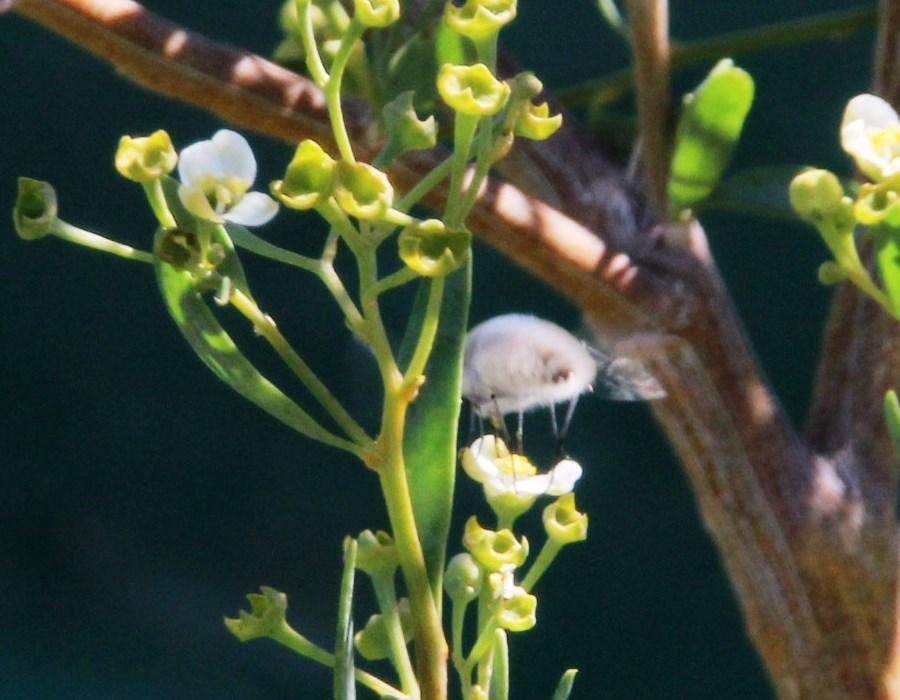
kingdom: Plantae
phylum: Tracheophyta
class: Magnoliopsida
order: Solanales
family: Montiniaceae
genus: Montinia
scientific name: Montinia caryophyllacea
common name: Wild clove-bush
